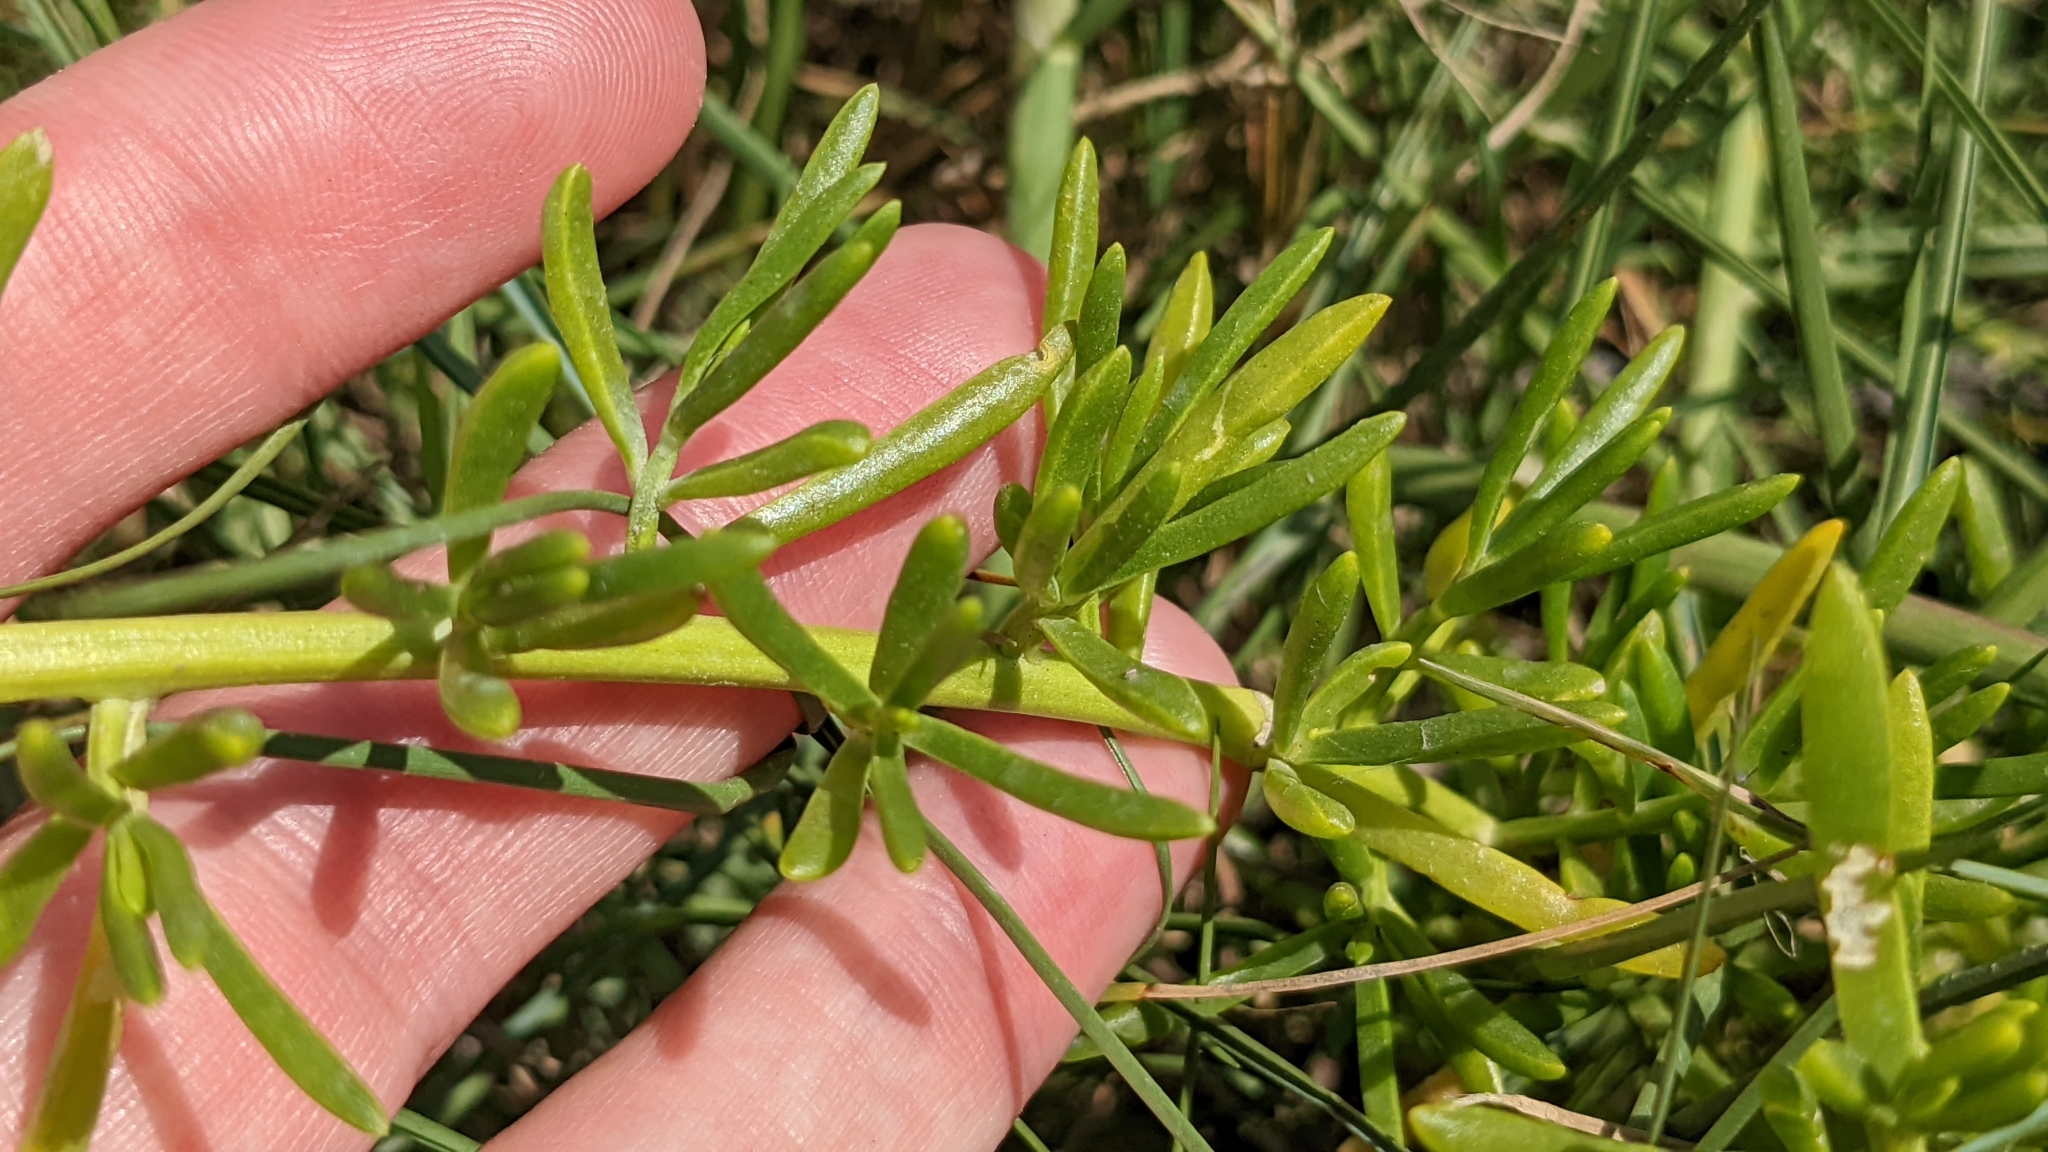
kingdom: Plantae
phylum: Tracheophyta
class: Magnoliopsida
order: Brassicales
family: Bataceae
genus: Batis
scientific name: Batis maritima
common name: Turtleweed
